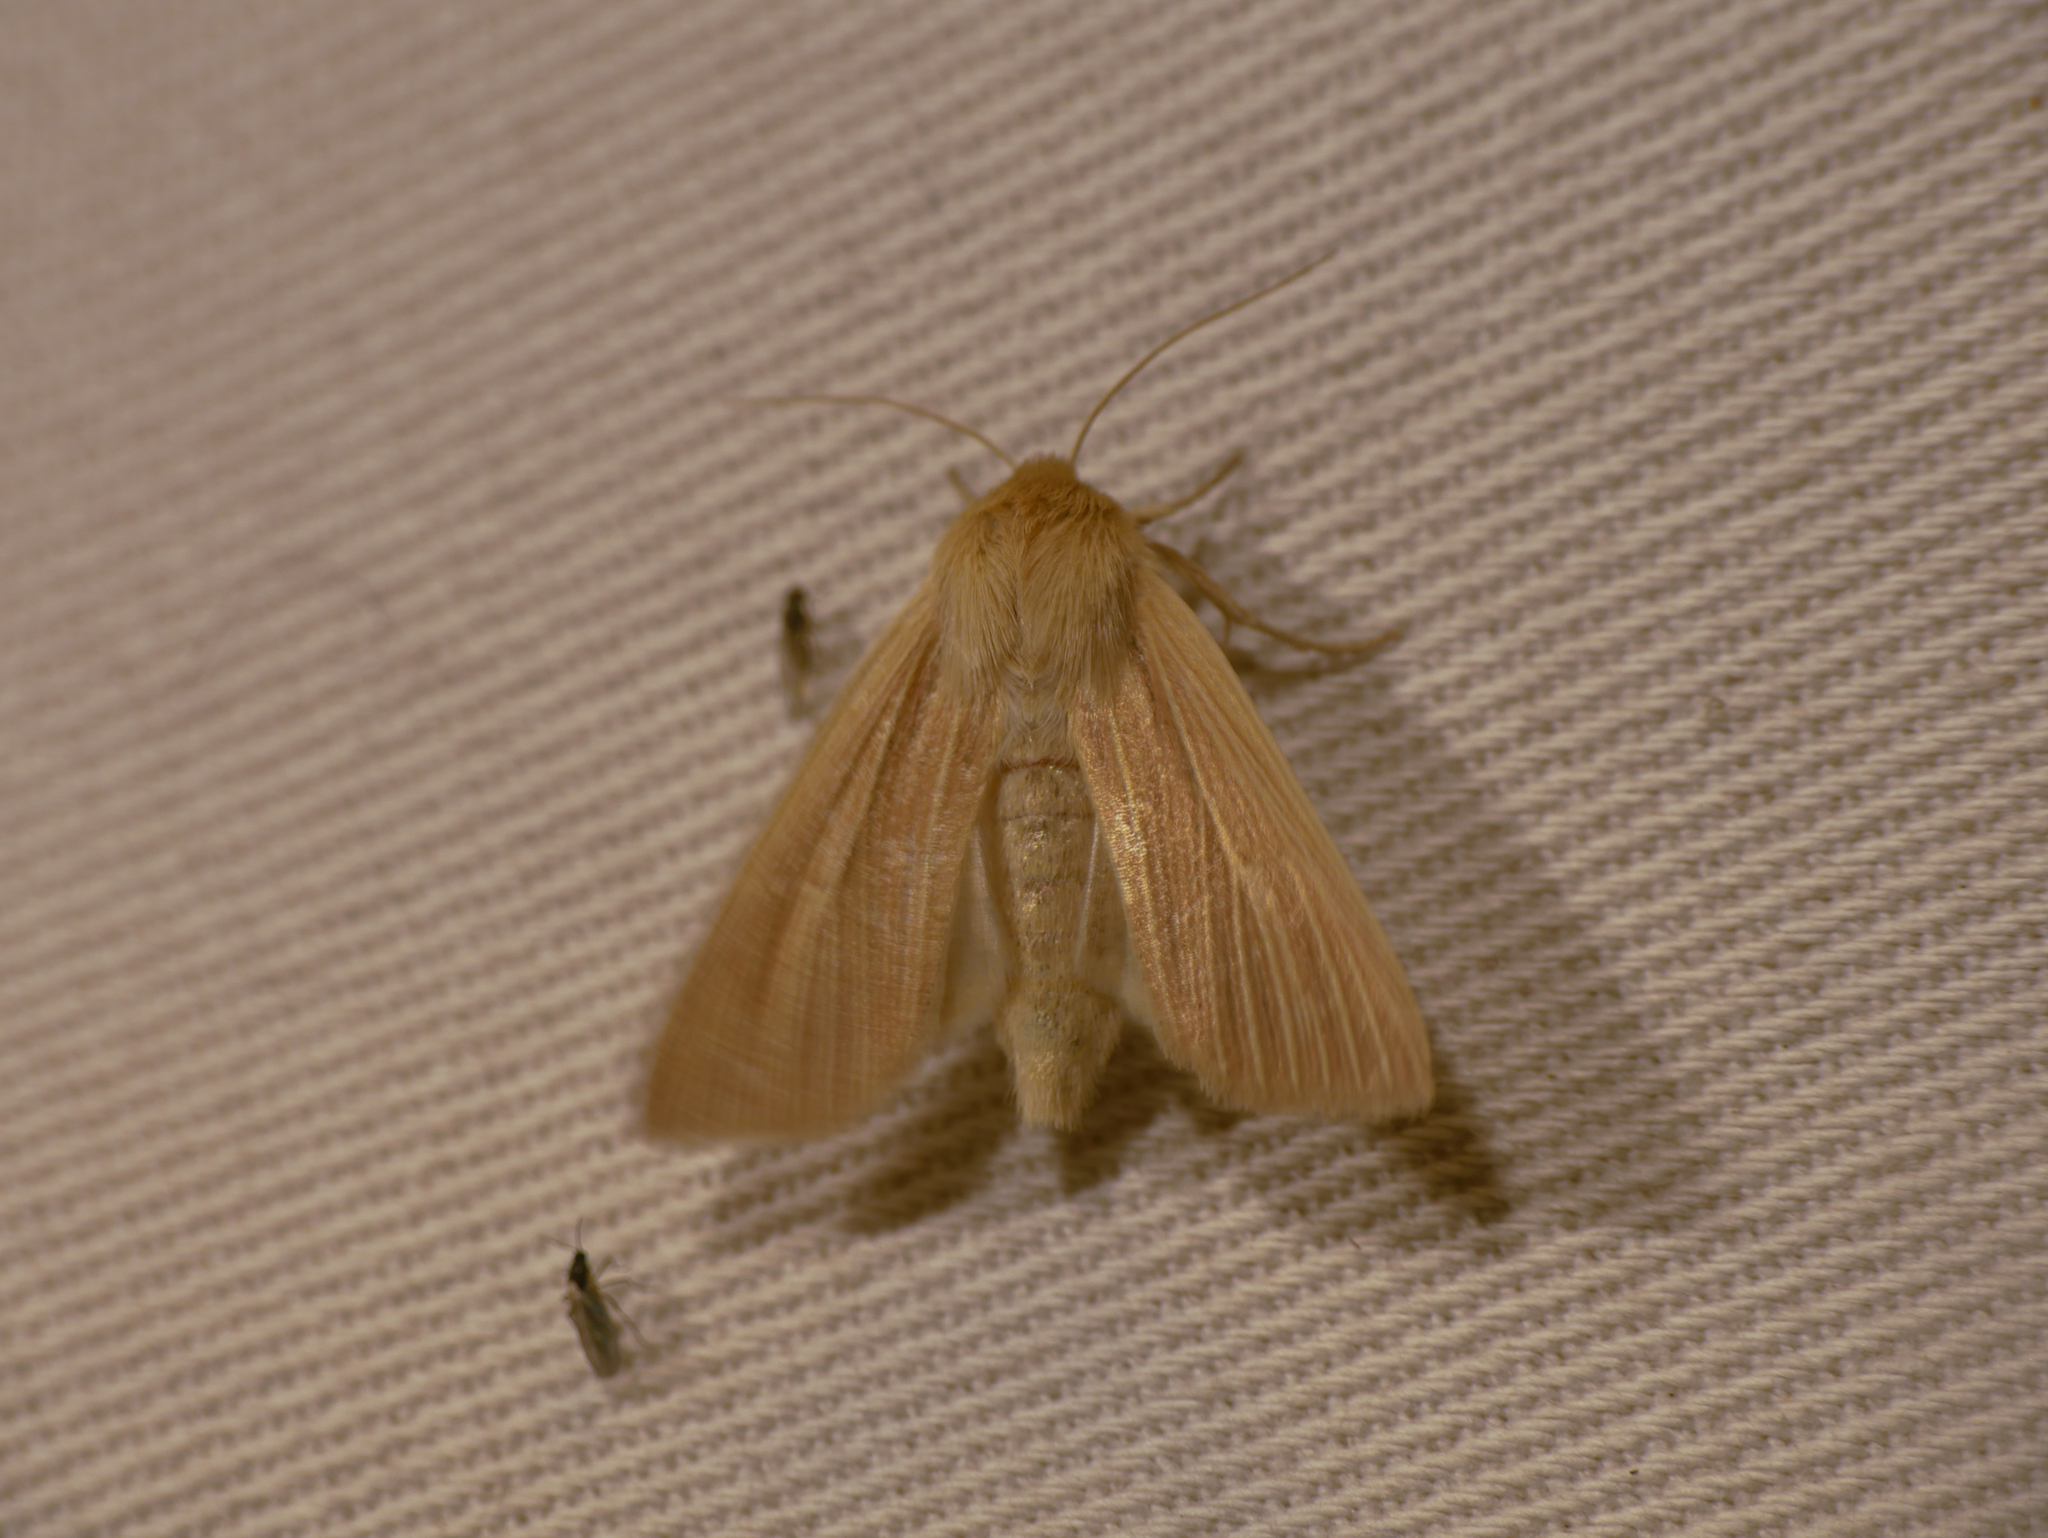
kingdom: Animalia
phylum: Arthropoda
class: Insecta
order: Lepidoptera
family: Noctuidae
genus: Mythimna
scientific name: Mythimna pallens
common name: Common wainscot
